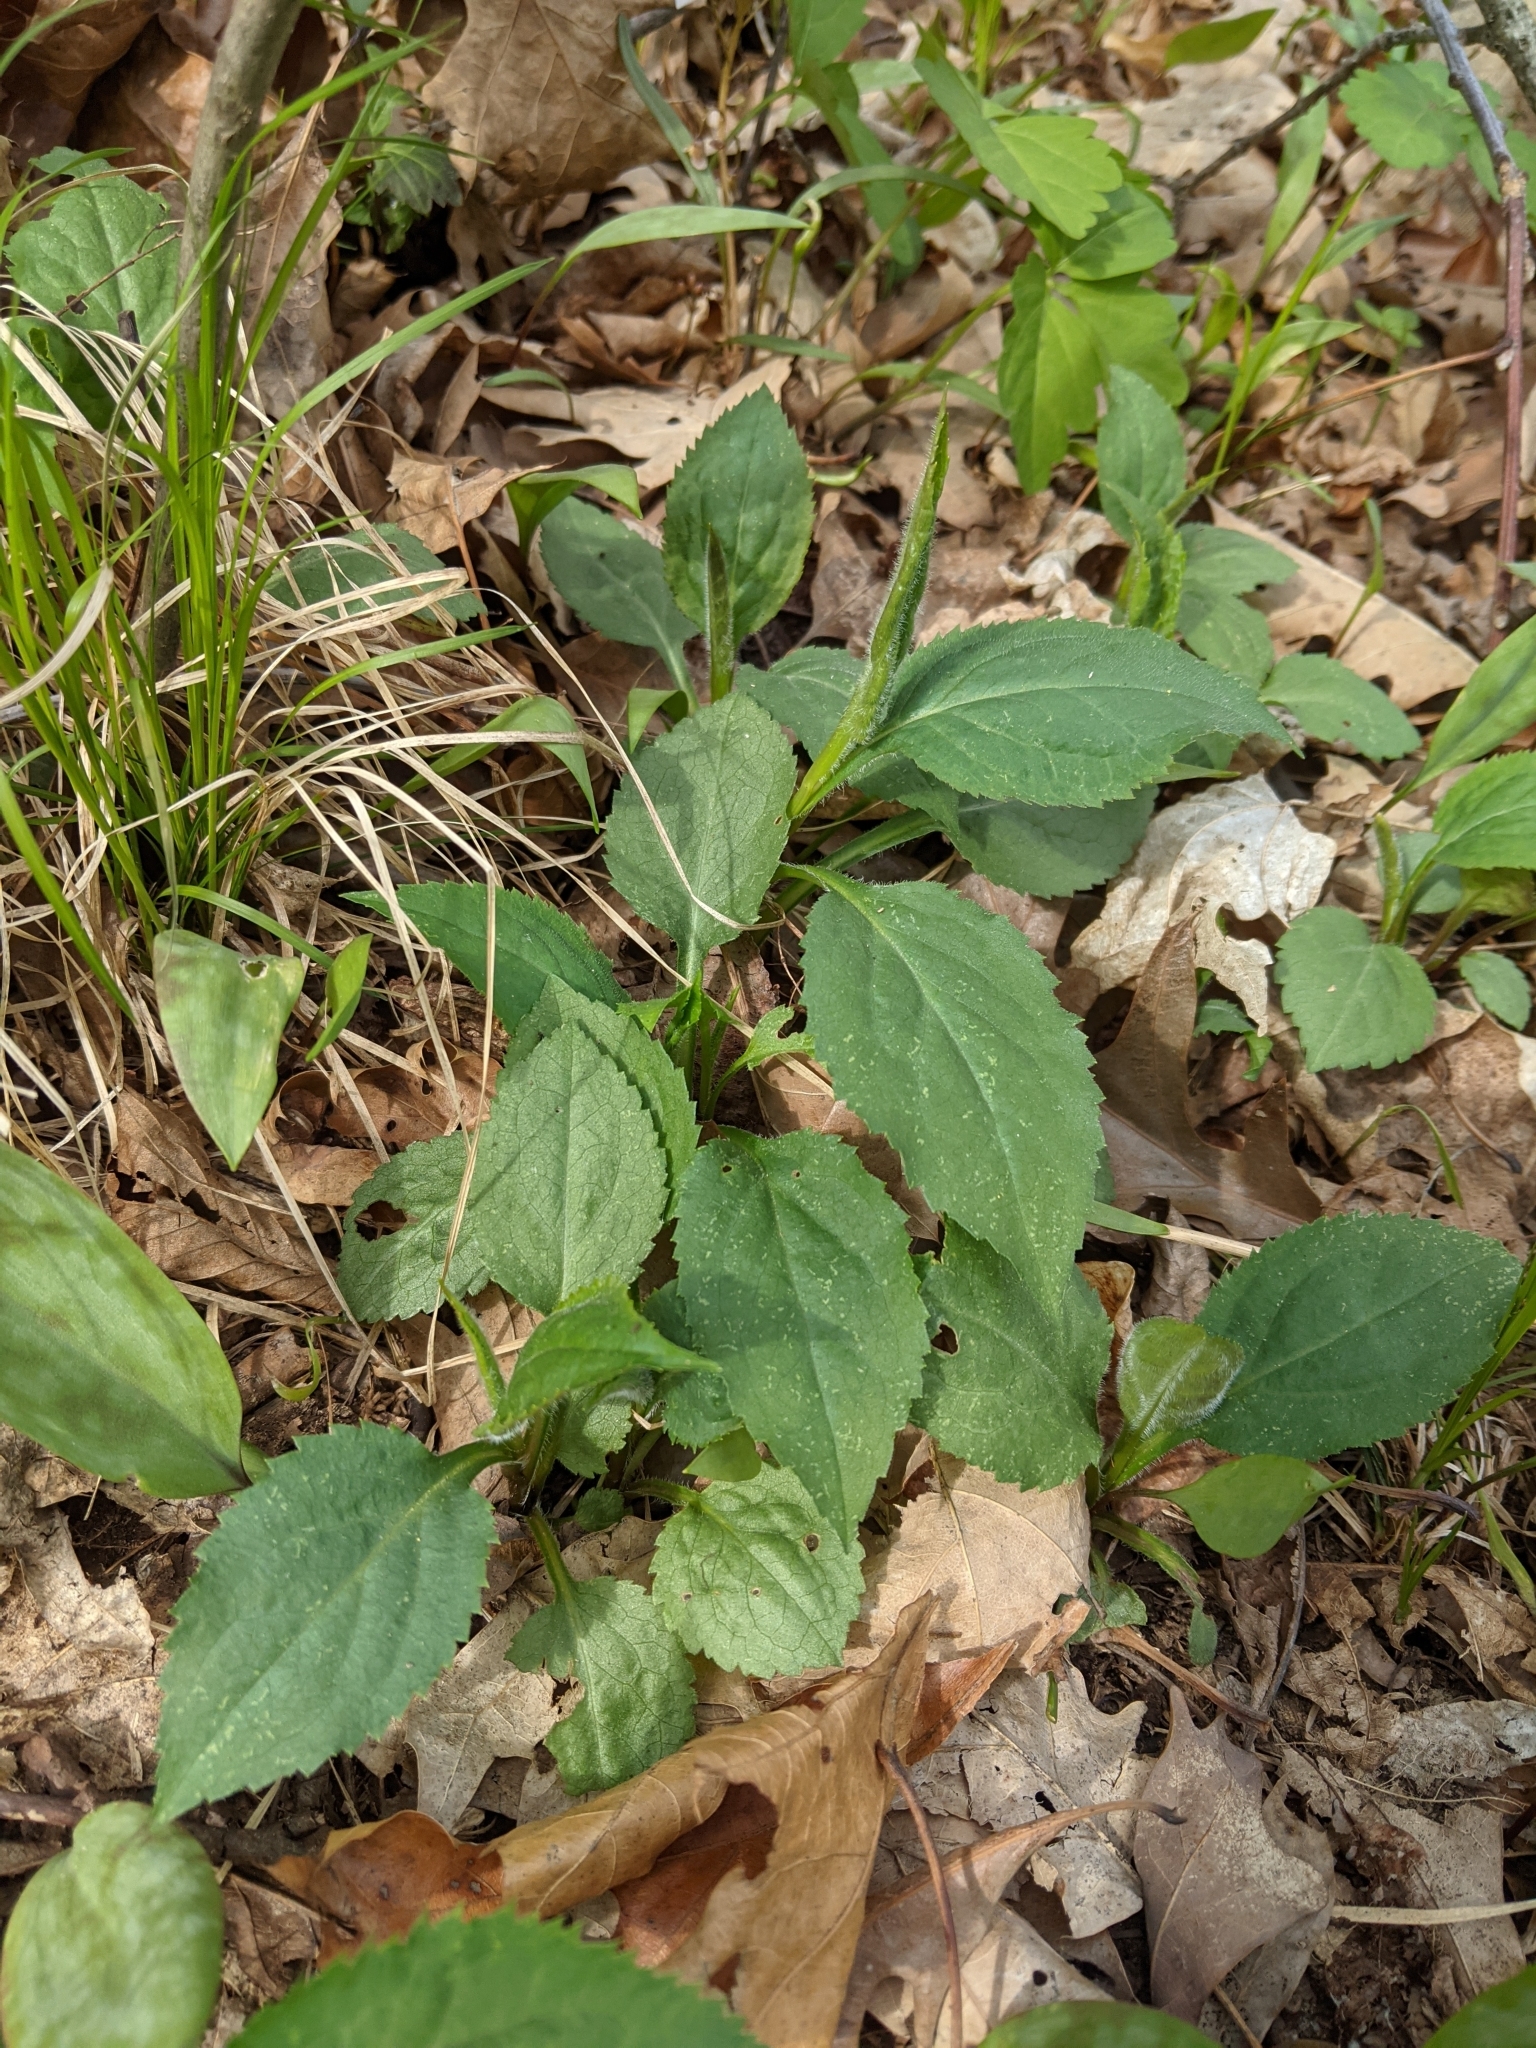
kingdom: Plantae
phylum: Tracheophyta
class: Magnoliopsida
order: Asterales
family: Asteraceae
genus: Solidago
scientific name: Solidago rigida
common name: Rigid goldenrod
